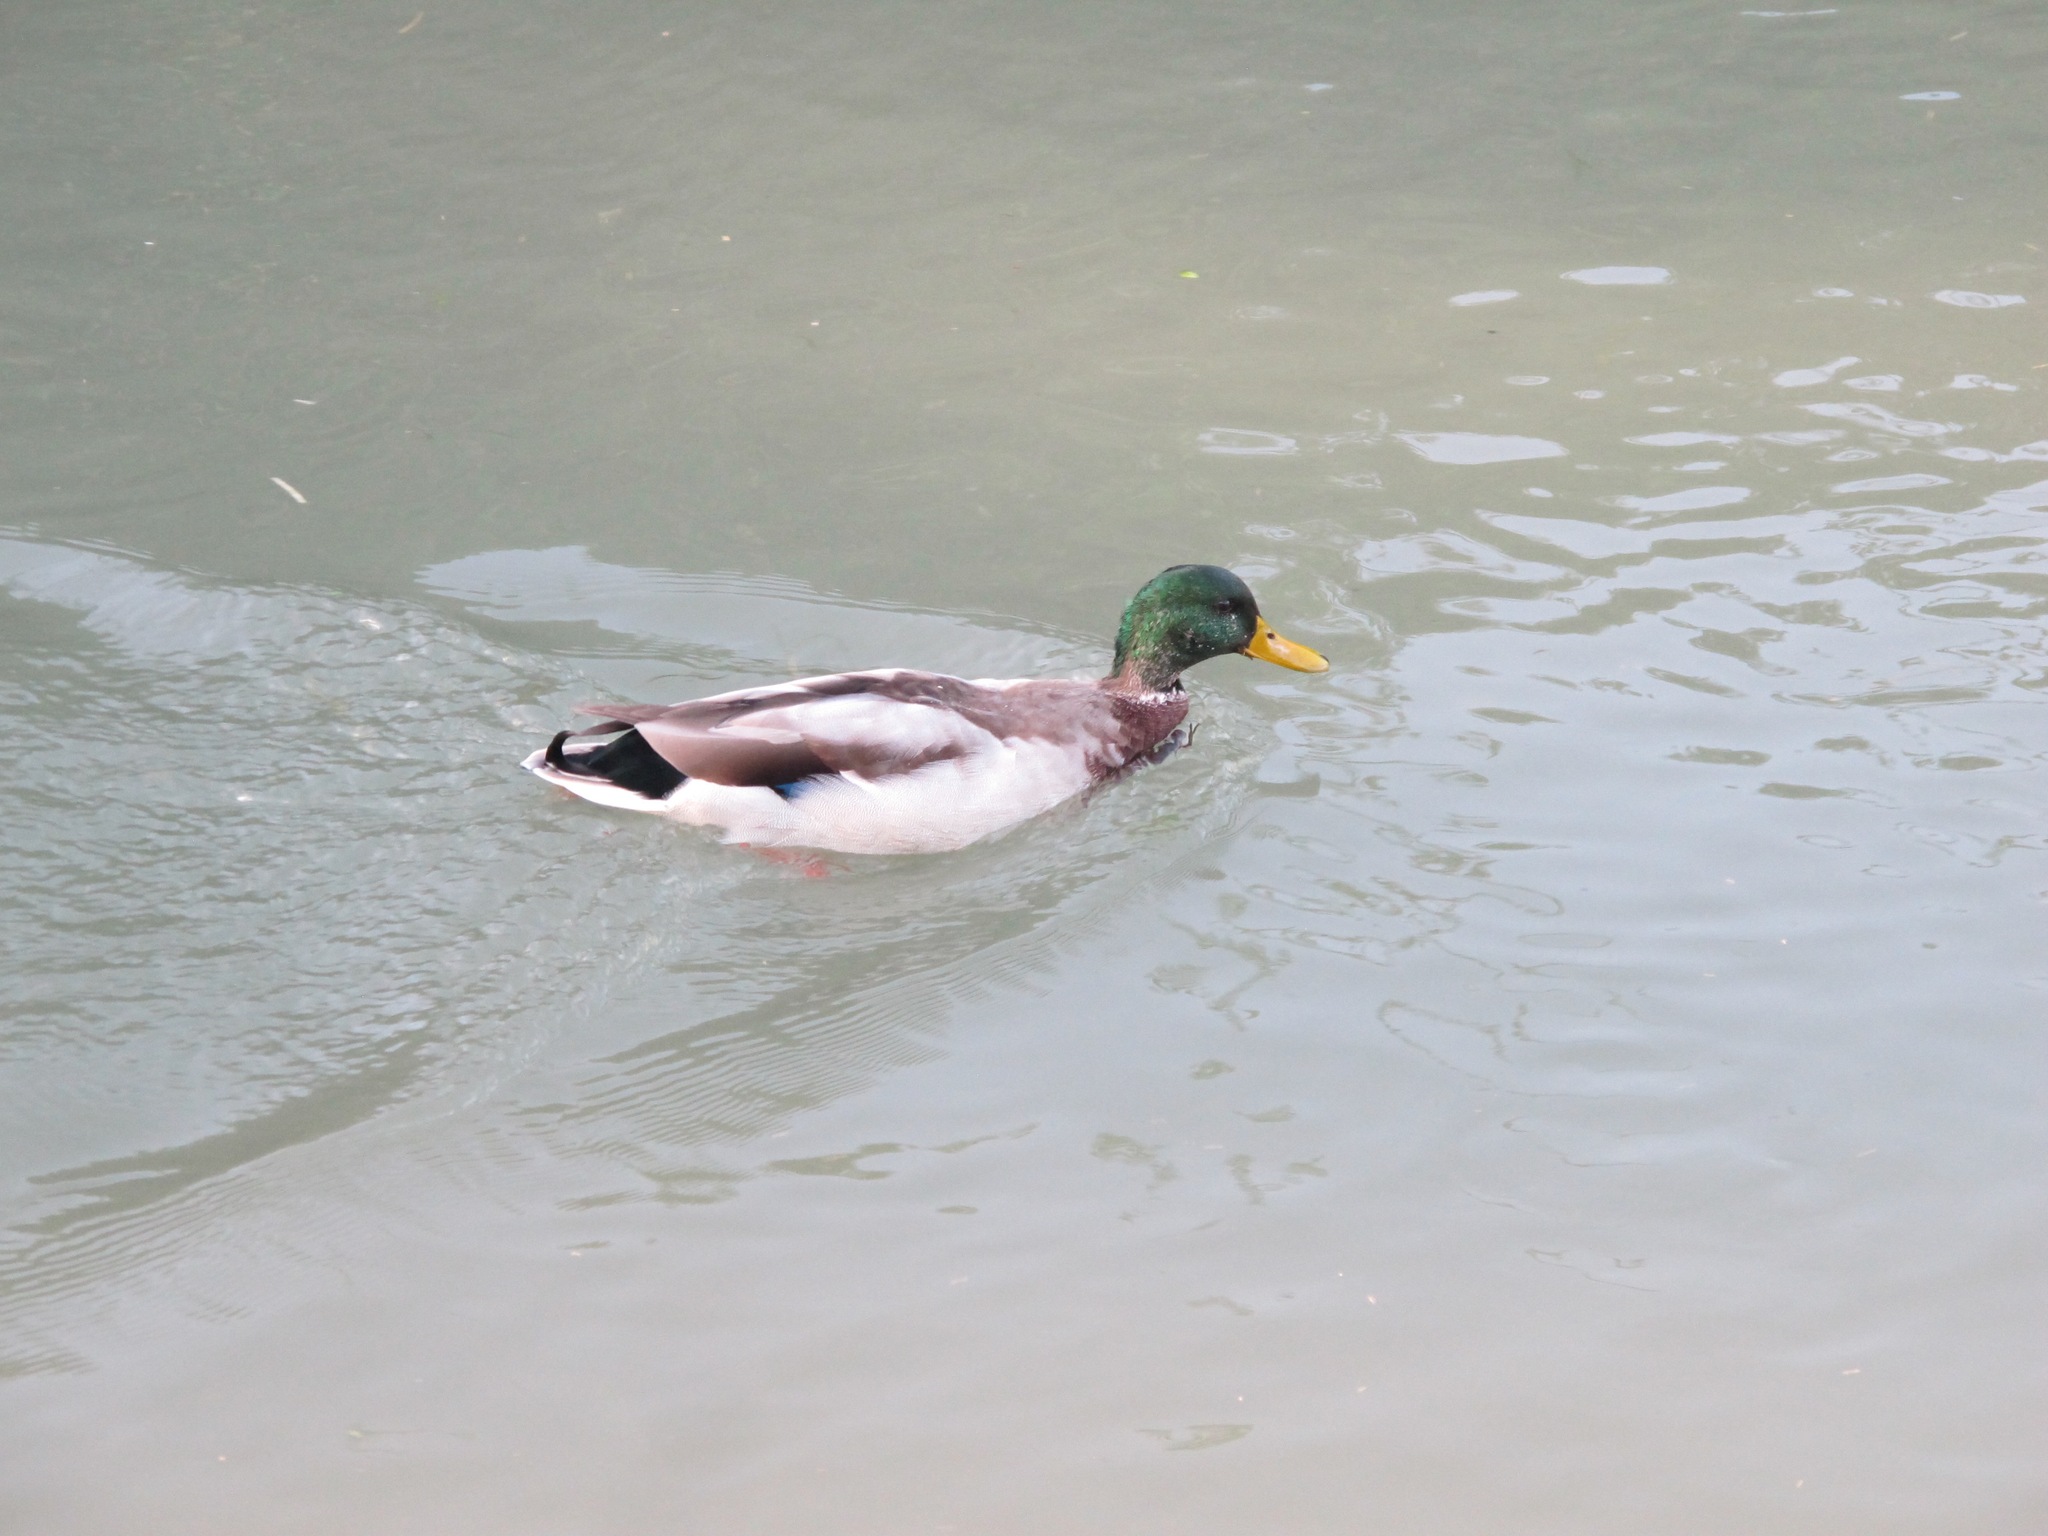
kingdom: Animalia
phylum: Chordata
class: Aves
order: Anseriformes
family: Anatidae
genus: Anas
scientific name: Anas platyrhynchos
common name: Mallard
